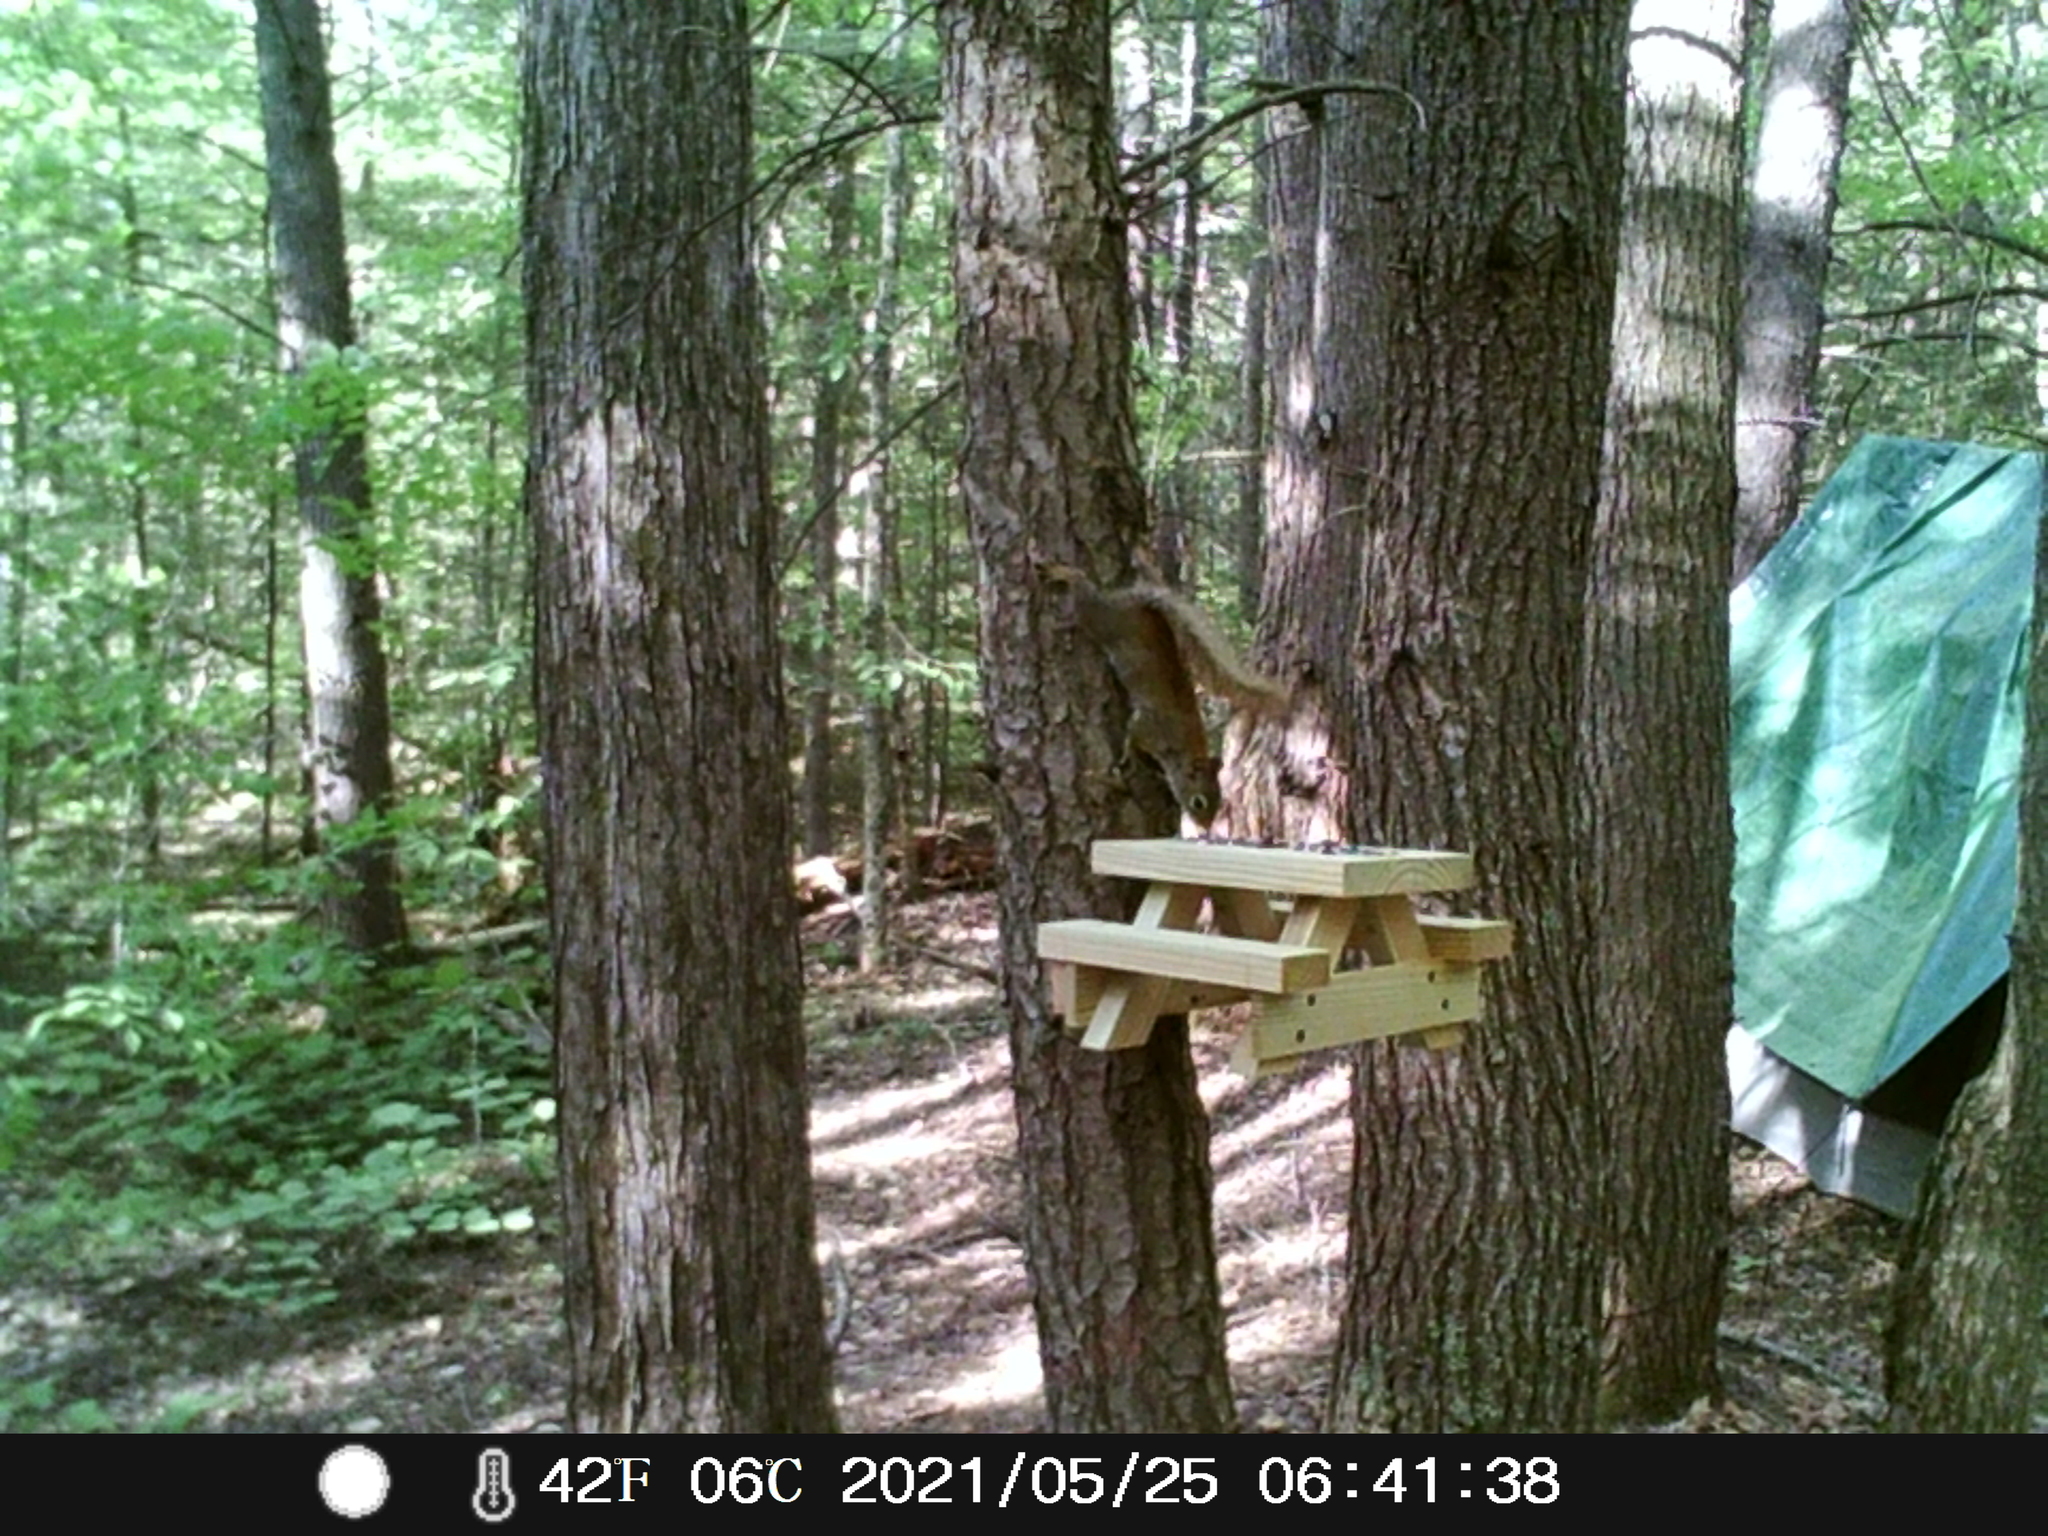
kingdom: Animalia
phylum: Chordata
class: Mammalia
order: Rodentia
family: Sciuridae
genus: Tamiasciurus
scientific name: Tamiasciurus hudsonicus
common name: Red squirrel
